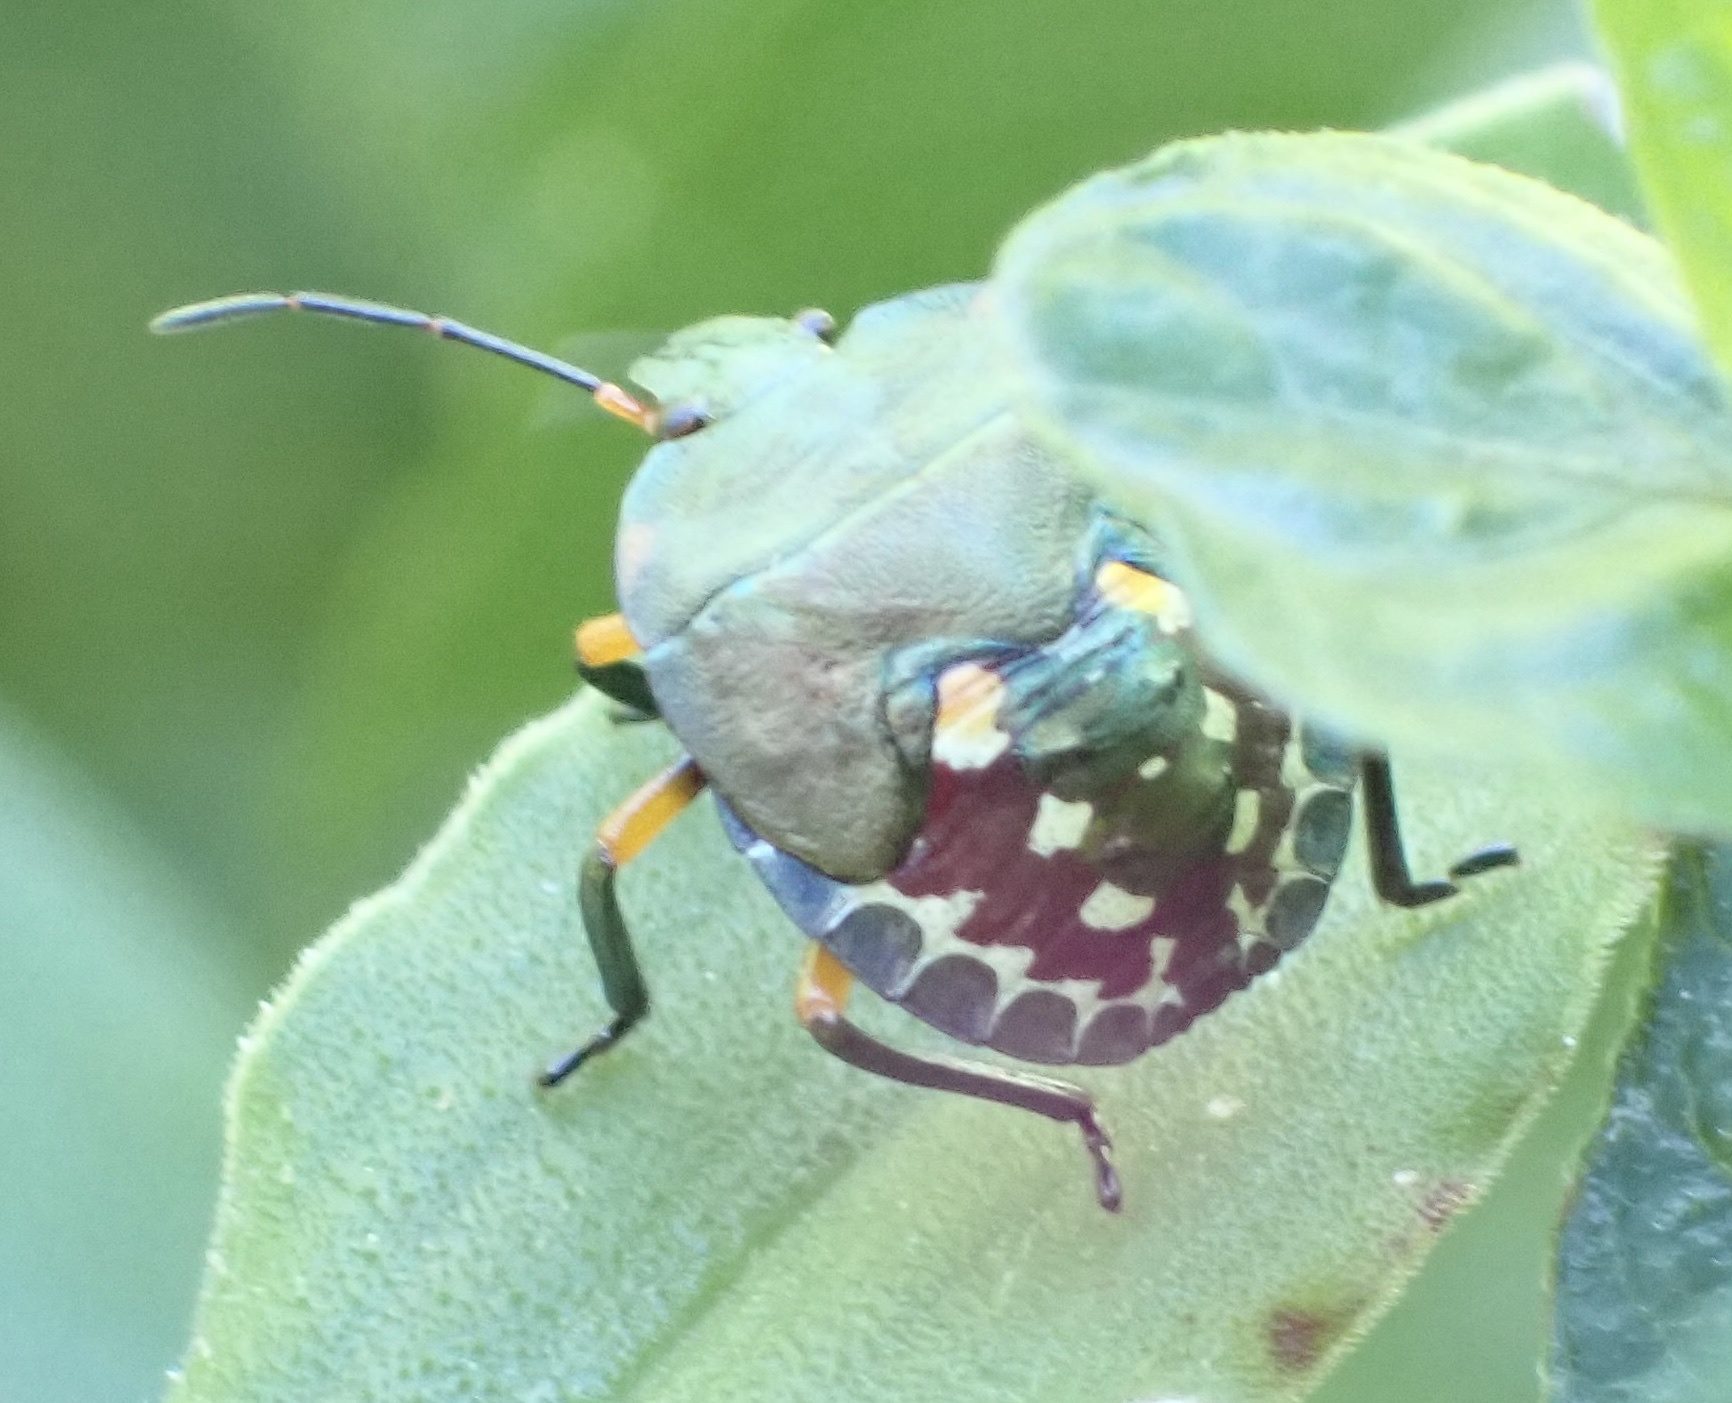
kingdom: Animalia
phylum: Arthropoda
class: Insecta
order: Hemiptera
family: Pentatomidae
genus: Caura
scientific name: Caura rufiventris
